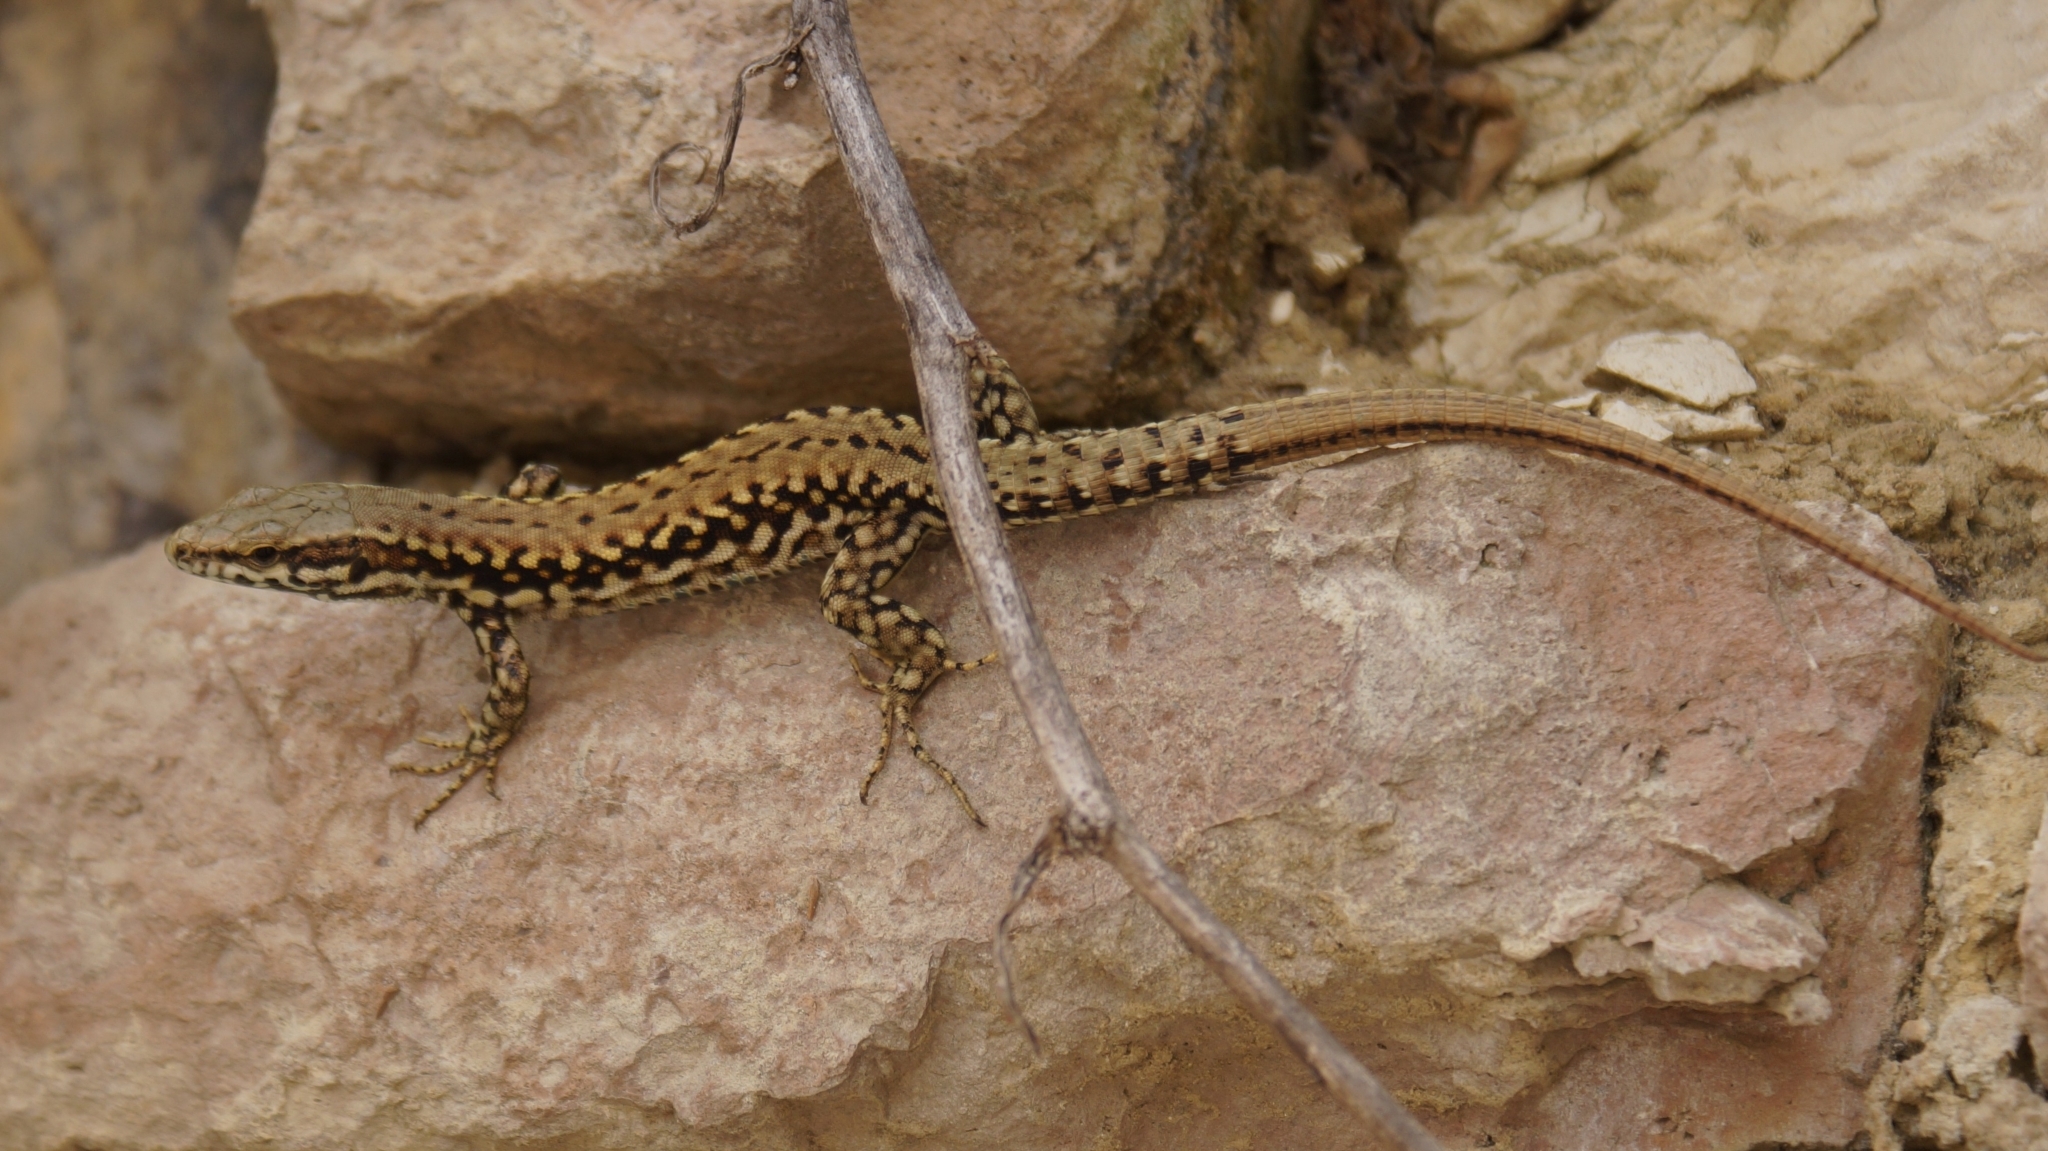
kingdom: Animalia
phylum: Chordata
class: Squamata
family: Lacertidae
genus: Podarcis
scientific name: Podarcis muralis
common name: Common wall lizard
